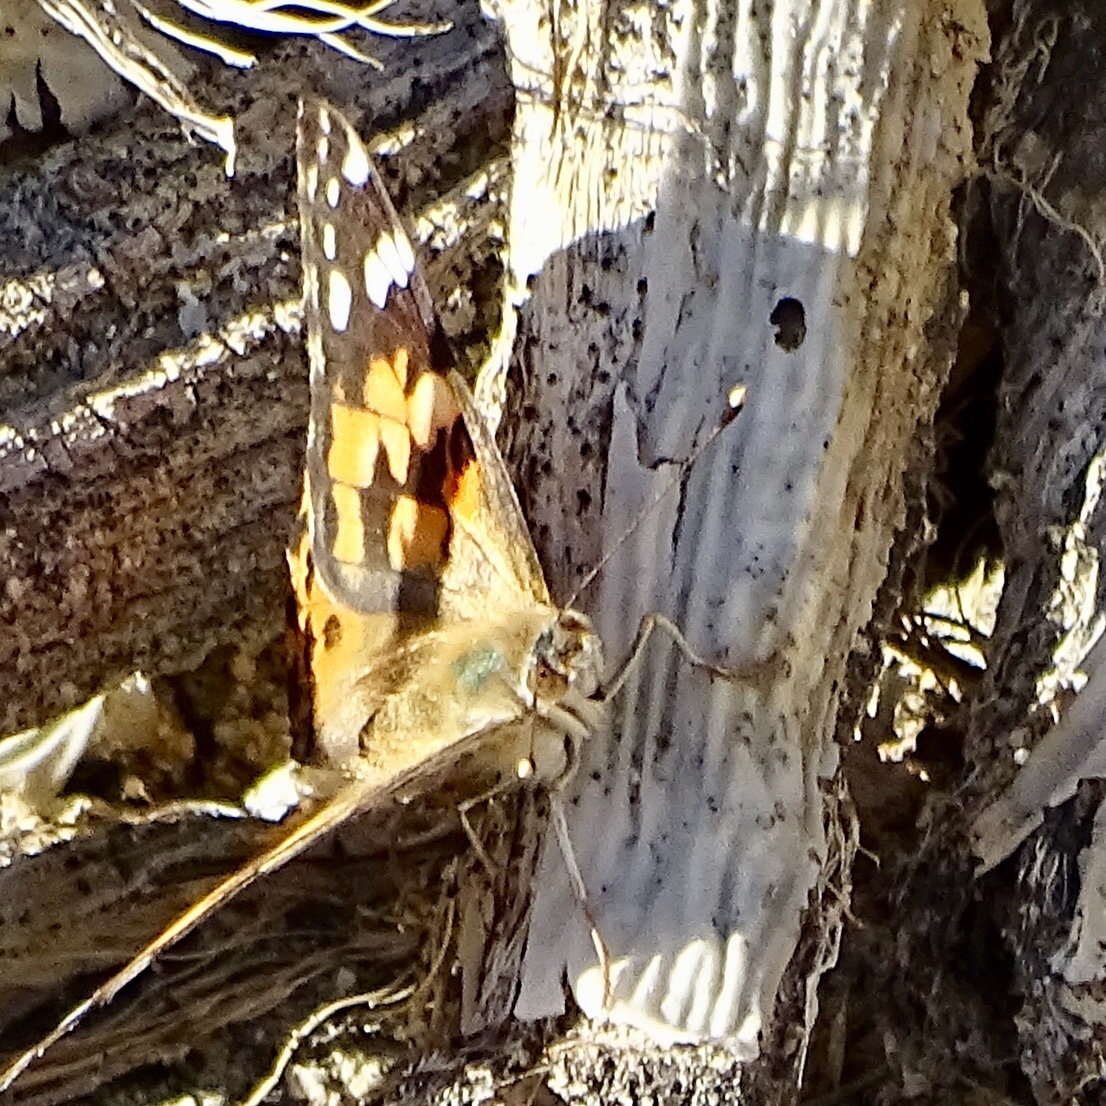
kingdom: Animalia
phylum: Arthropoda
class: Insecta
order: Lepidoptera
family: Nymphalidae
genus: Vanessa
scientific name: Vanessa cardui
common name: Painted lady
